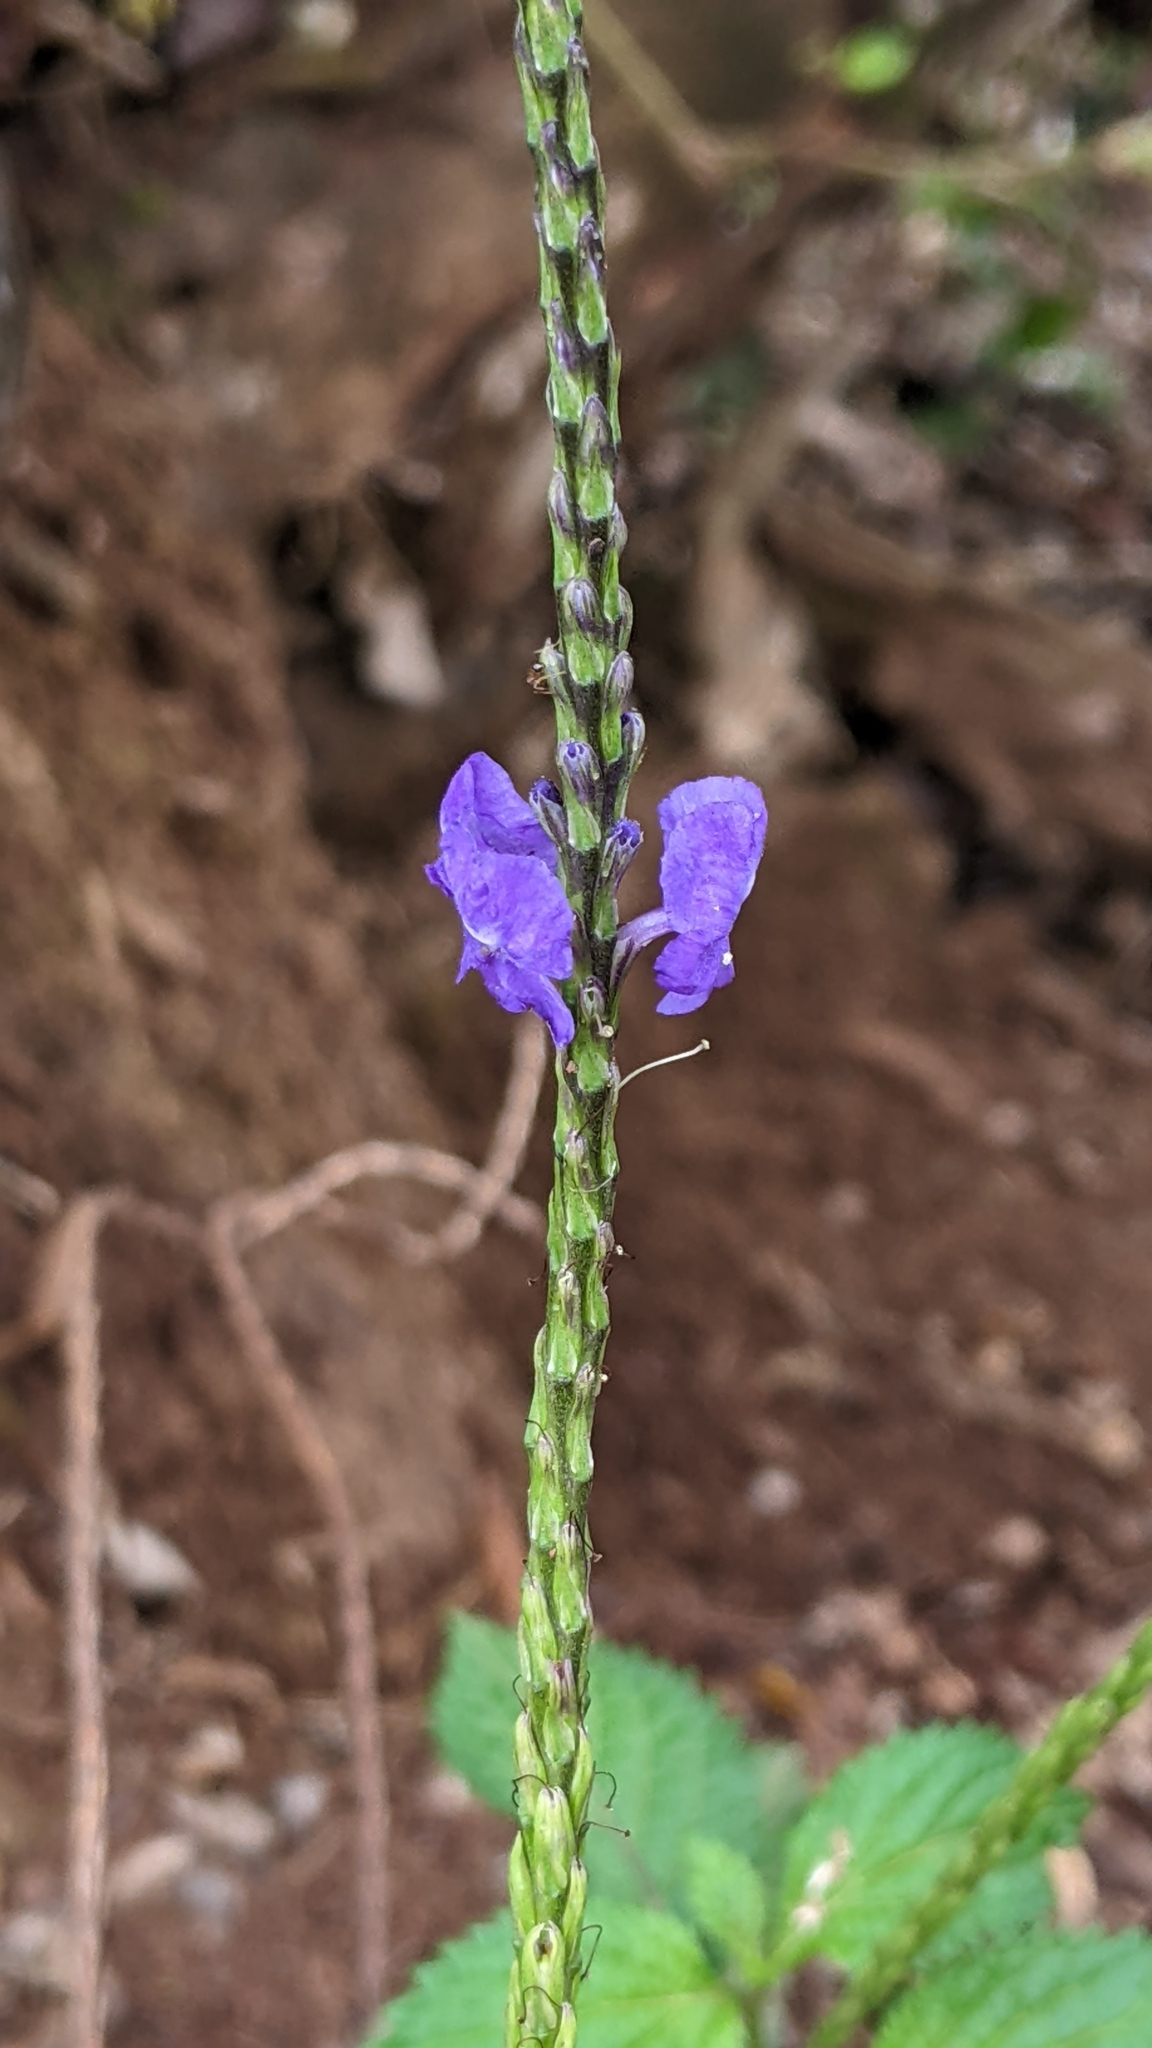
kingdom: Plantae
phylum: Tracheophyta
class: Magnoliopsida
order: Lamiales
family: Verbenaceae
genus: Stachytarpheta
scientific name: Stachytarpheta cayennensis
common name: Cayenne porterweed
